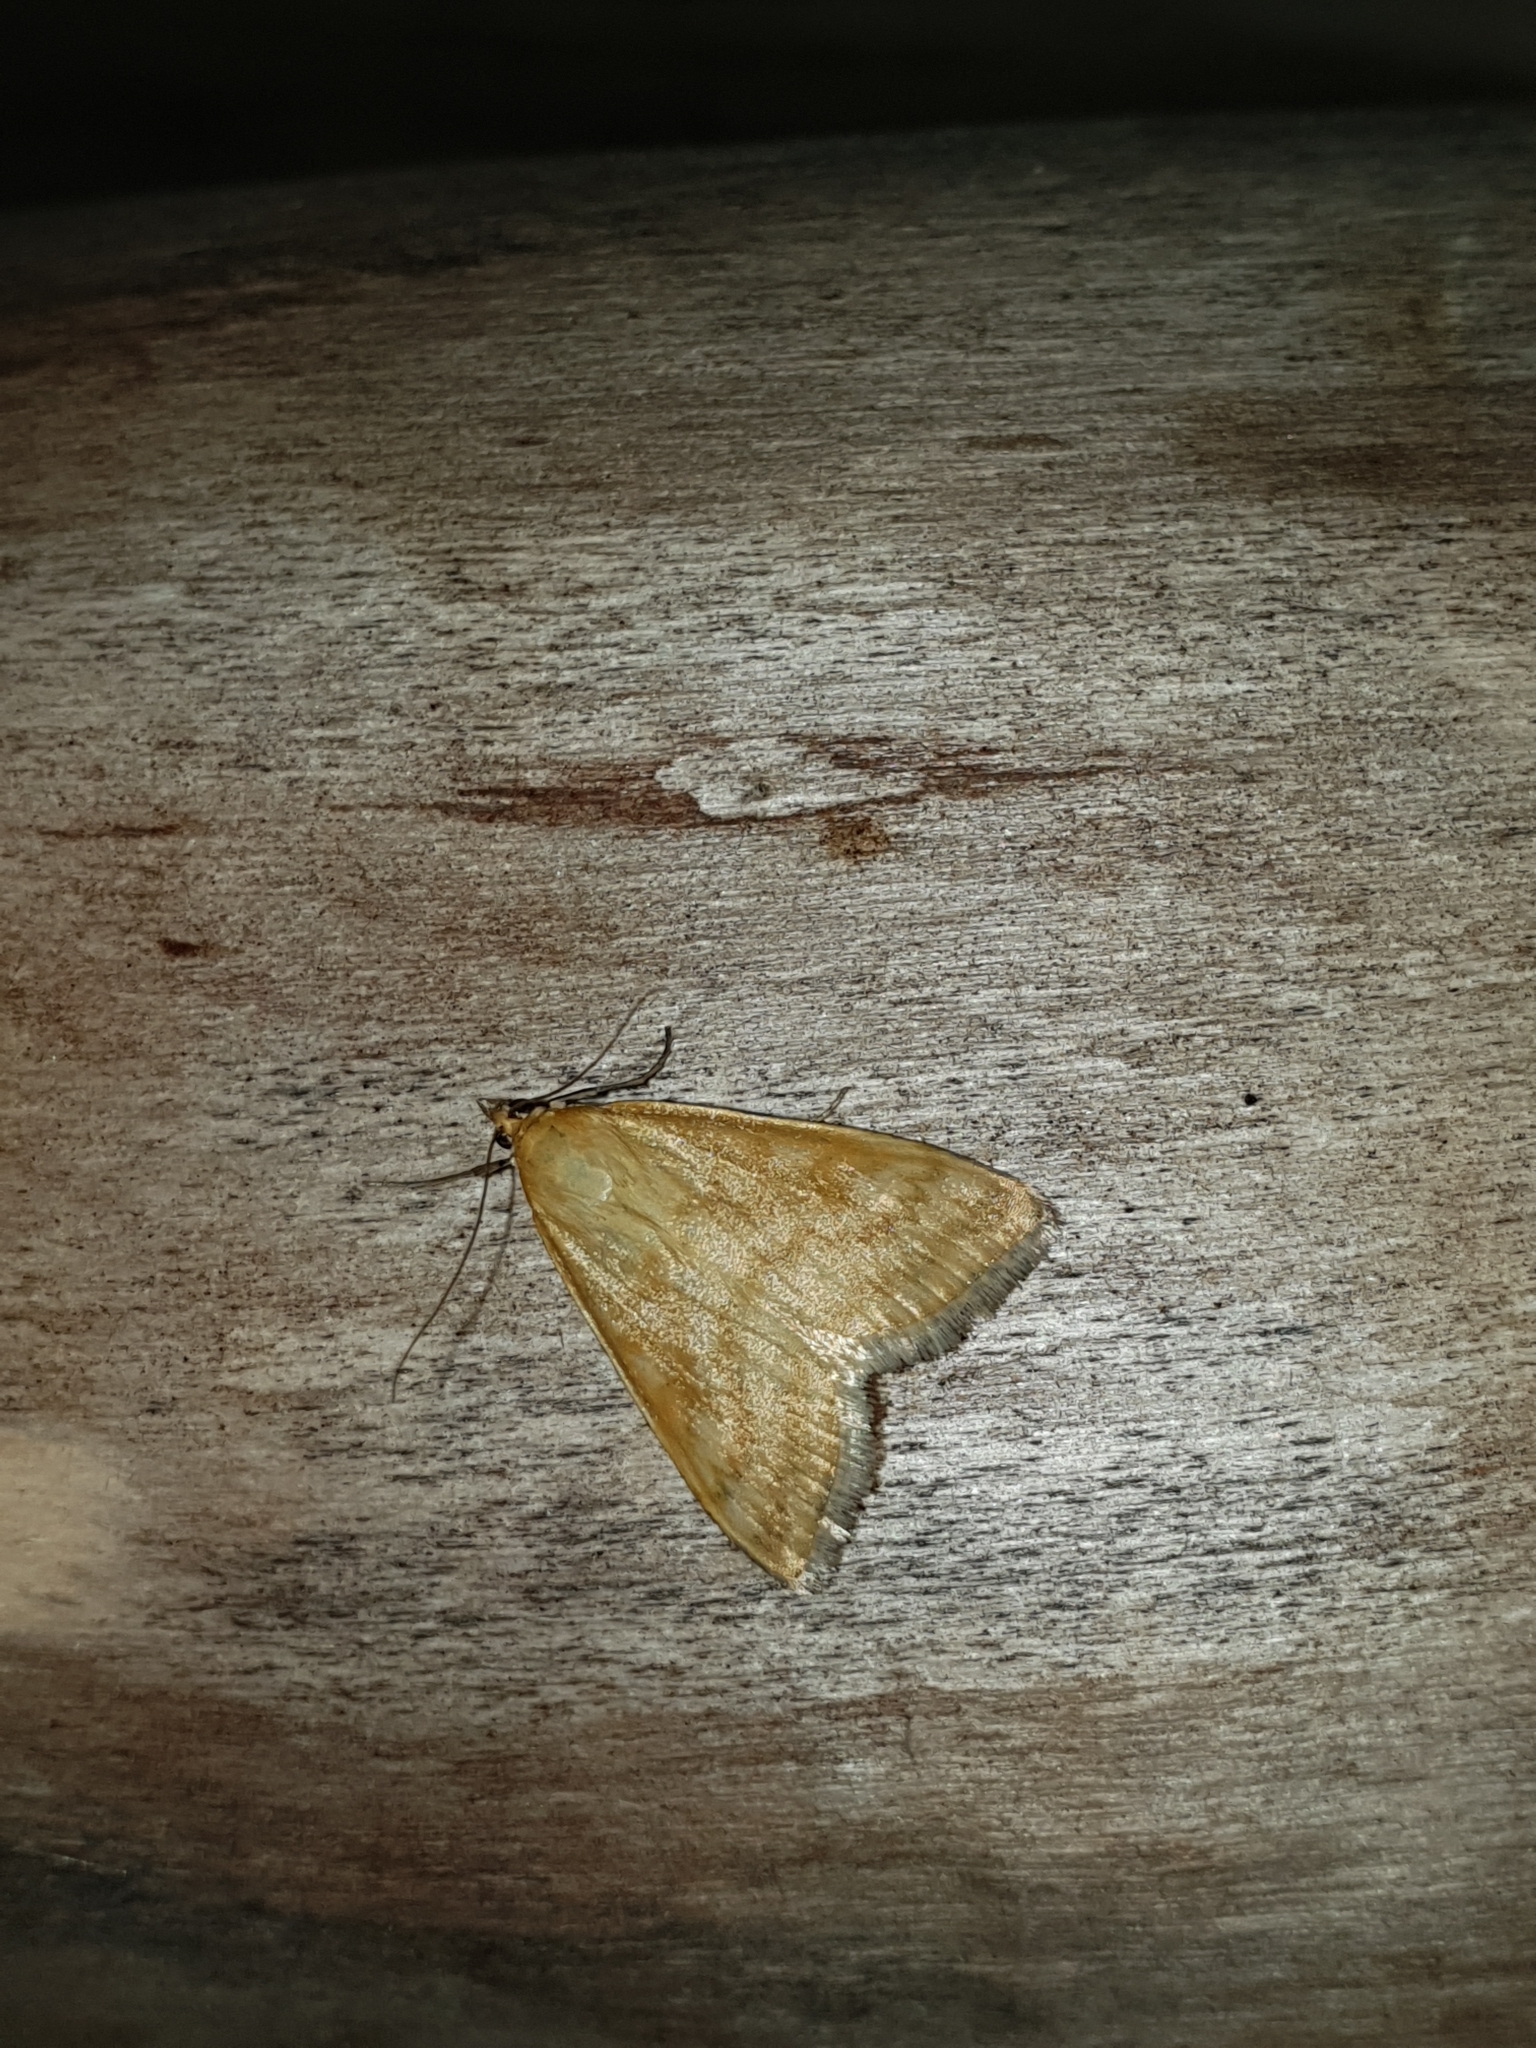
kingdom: Animalia
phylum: Arthropoda
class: Insecta
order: Lepidoptera
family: Crambidae
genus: Sitochroa
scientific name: Sitochroa verticalis
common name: Lesser pearl
